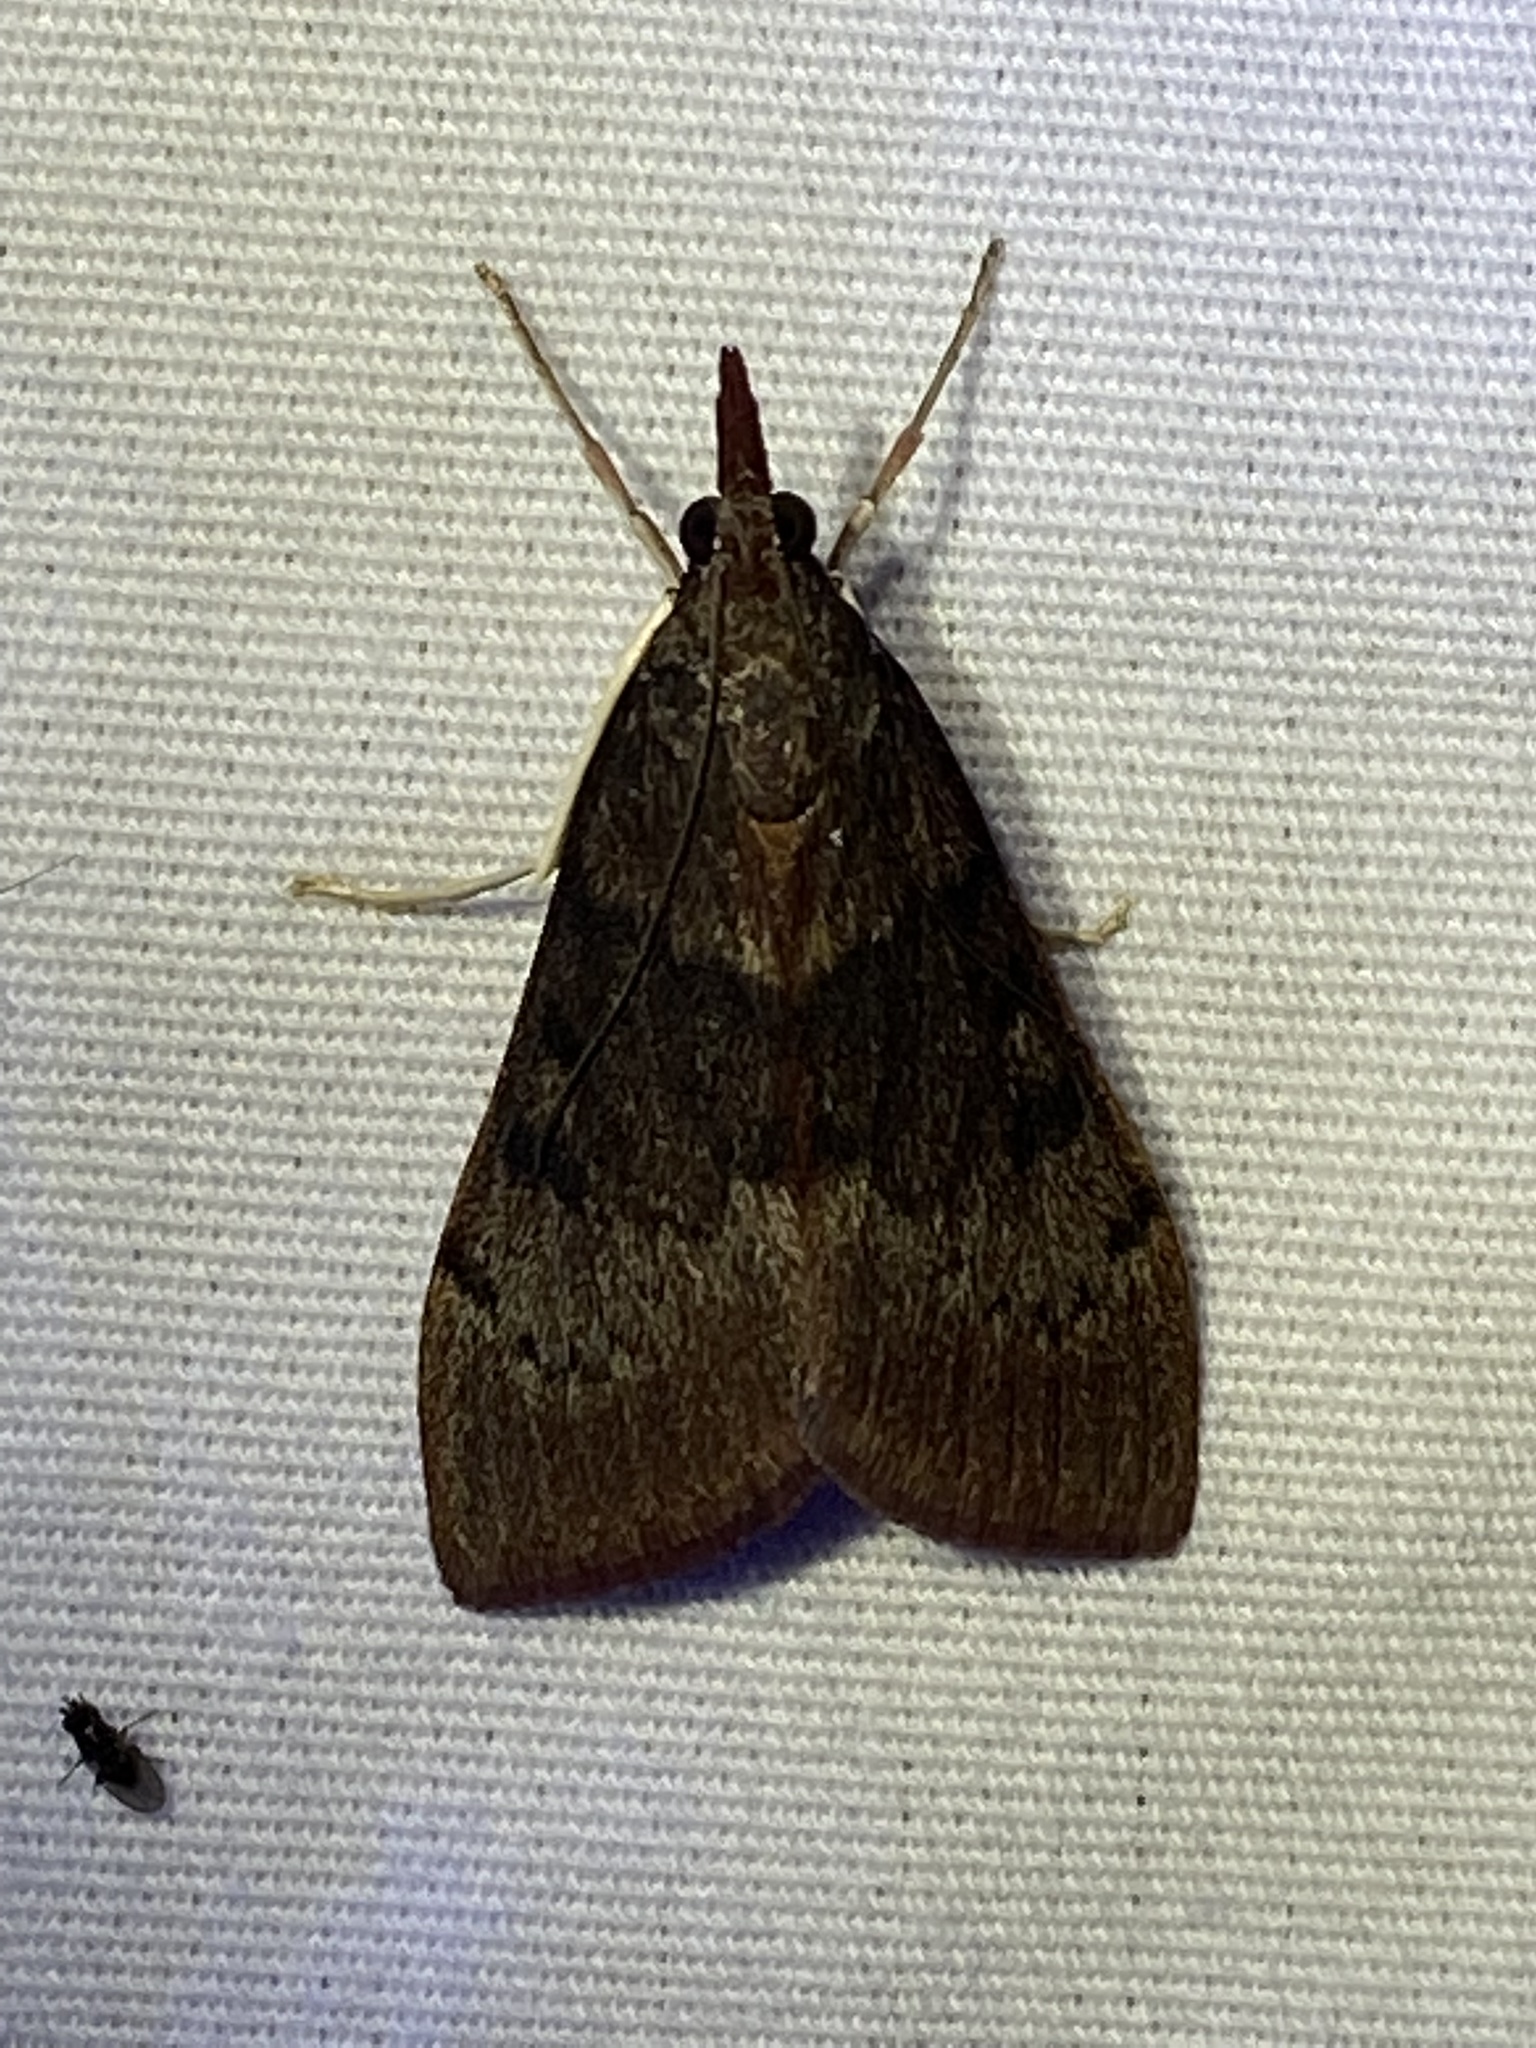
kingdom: Animalia
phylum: Arthropoda
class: Insecta
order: Lepidoptera
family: Crambidae
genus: Uresiphita
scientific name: Uresiphita reversalis
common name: Genista broom moth
